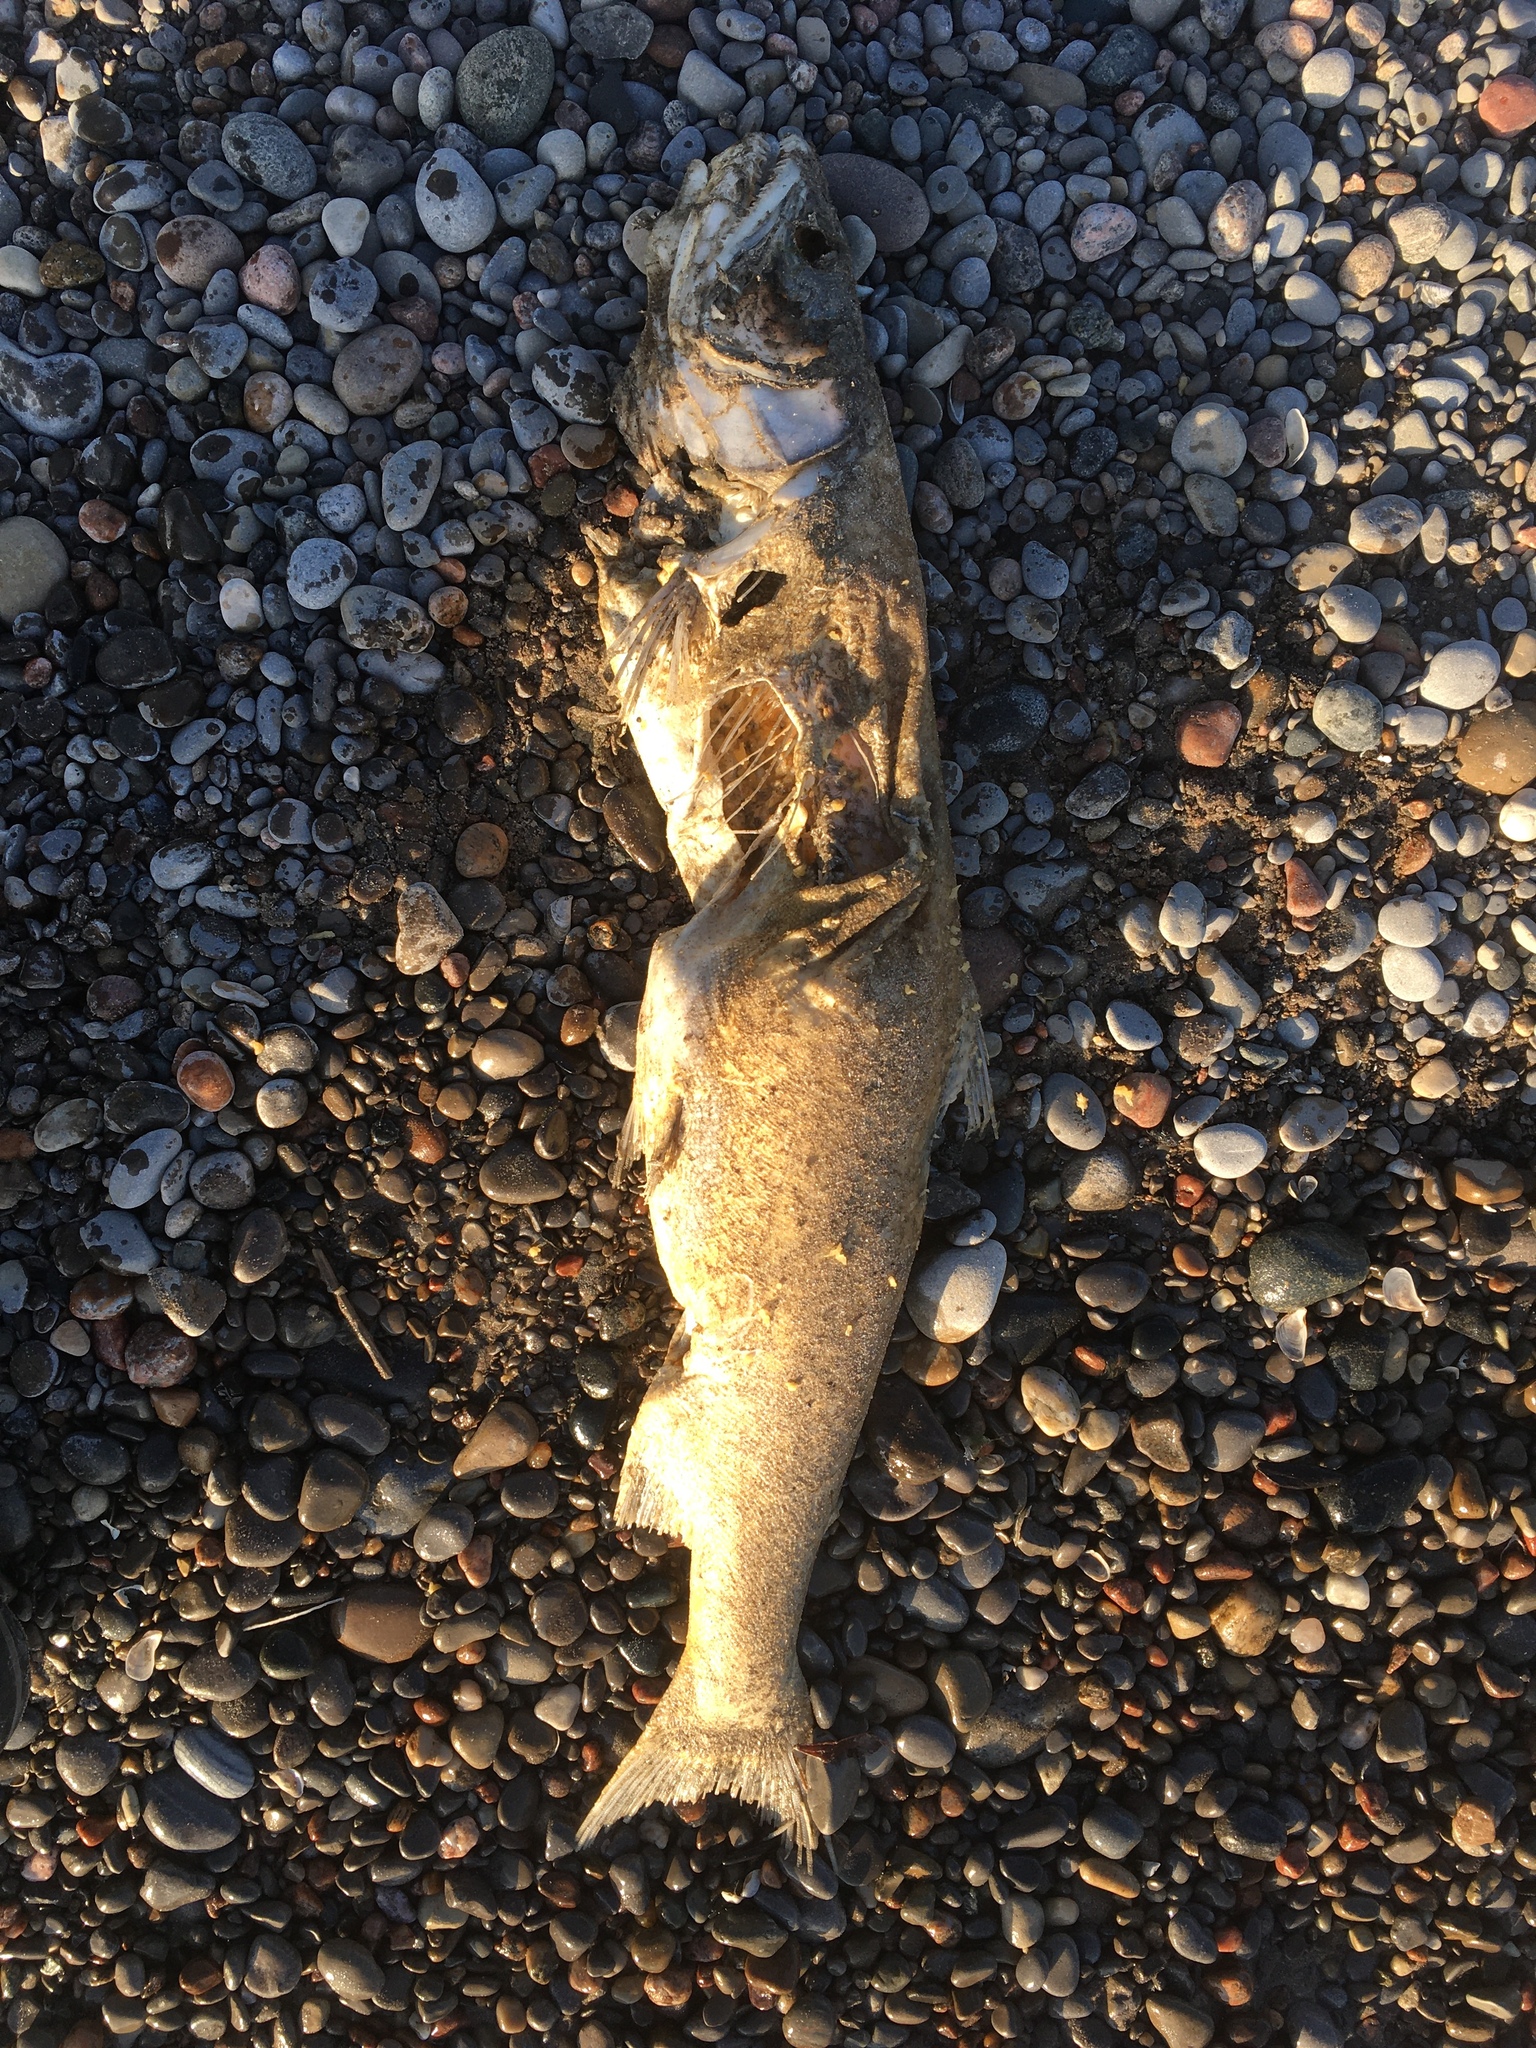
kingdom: Animalia
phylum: Chordata
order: Salmoniformes
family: Salmonidae
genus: Salvelinus
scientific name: Salvelinus namaycush
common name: American lake charr
